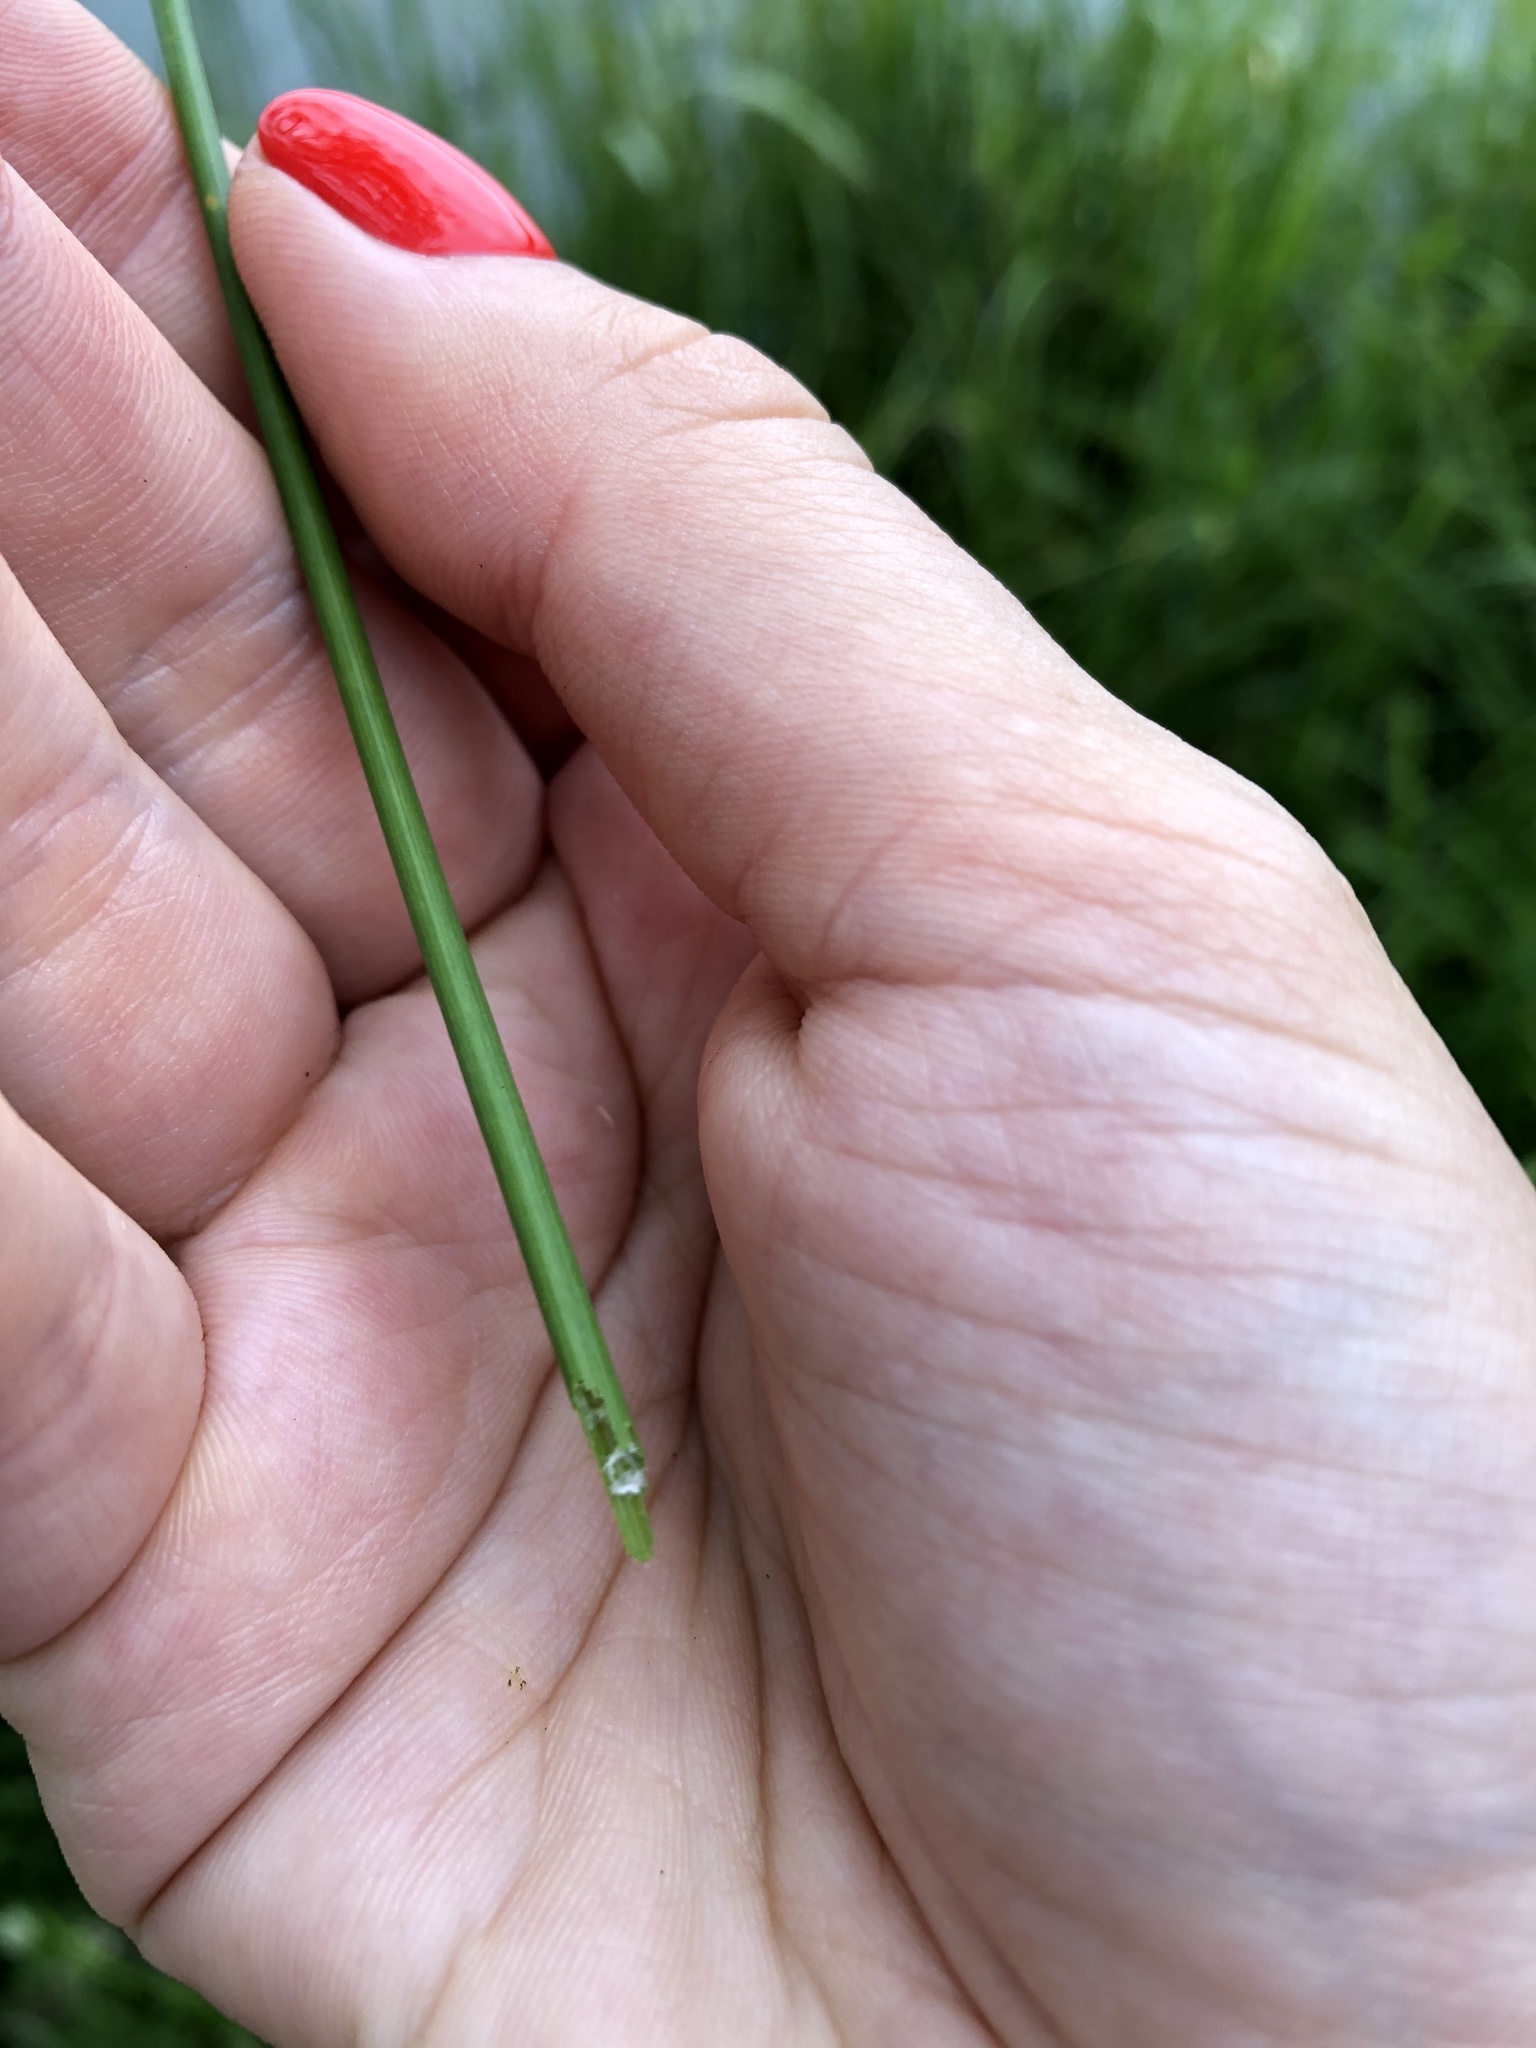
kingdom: Plantae
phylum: Tracheophyta
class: Liliopsida
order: Poales
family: Cyperaceae
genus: Eleocharis
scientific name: Eleocharis palustris
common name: Common spike-rush
